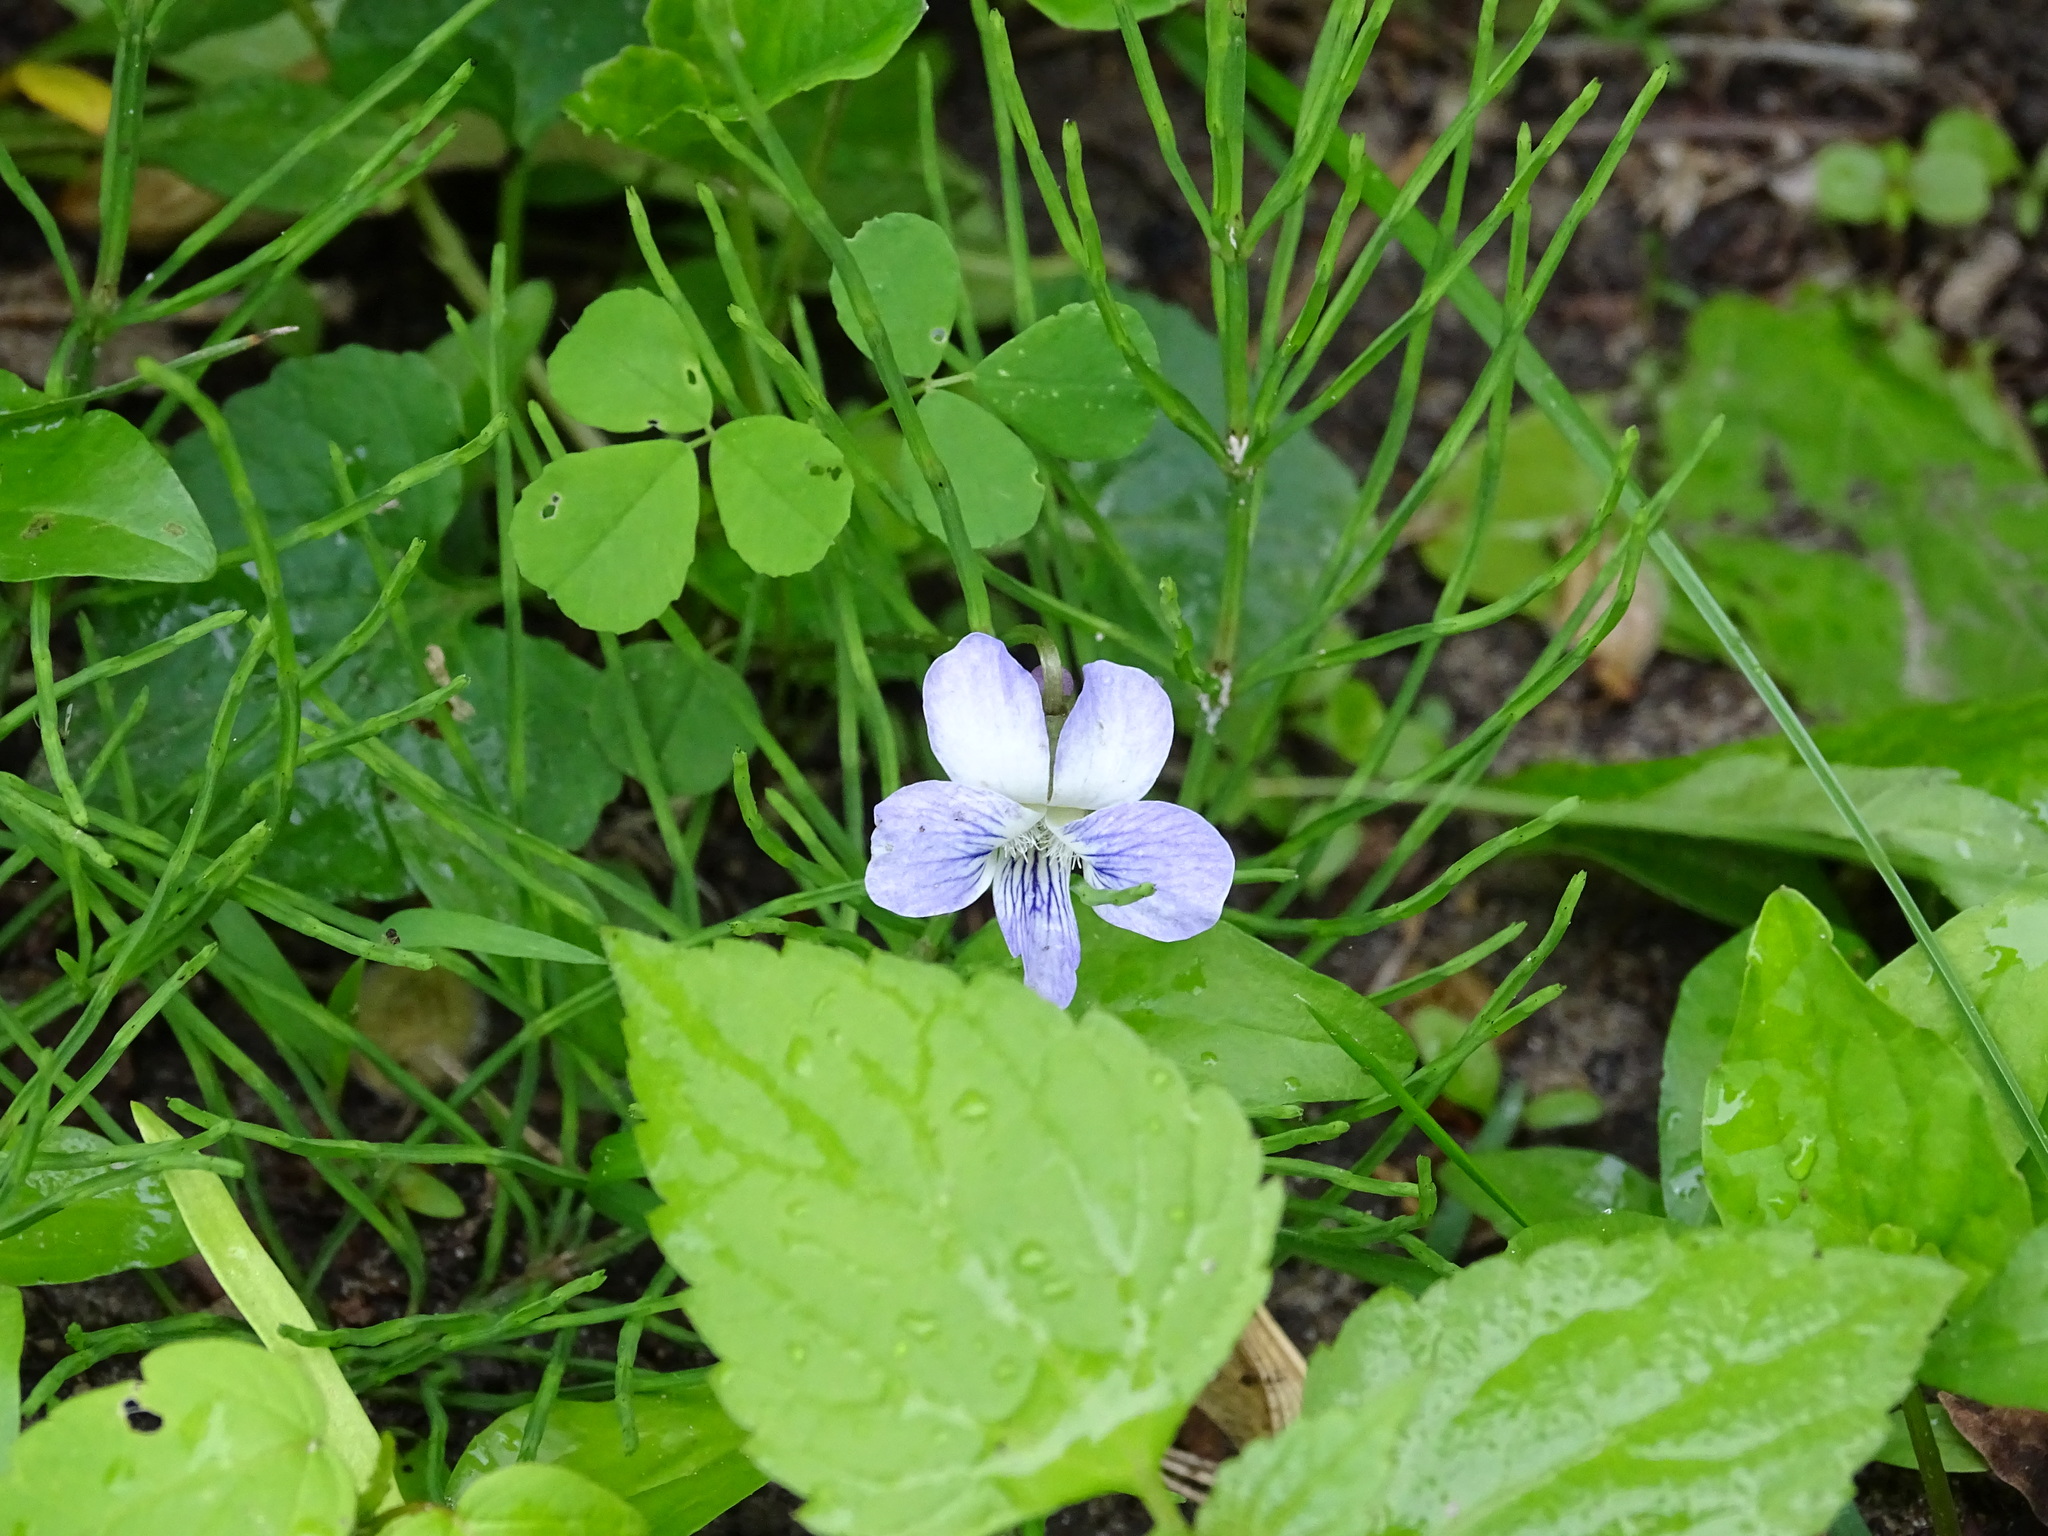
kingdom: Plantae
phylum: Tracheophyta
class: Magnoliopsida
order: Malpighiales
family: Violaceae
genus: Viola
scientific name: Viola sororia
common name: Dooryard violet
